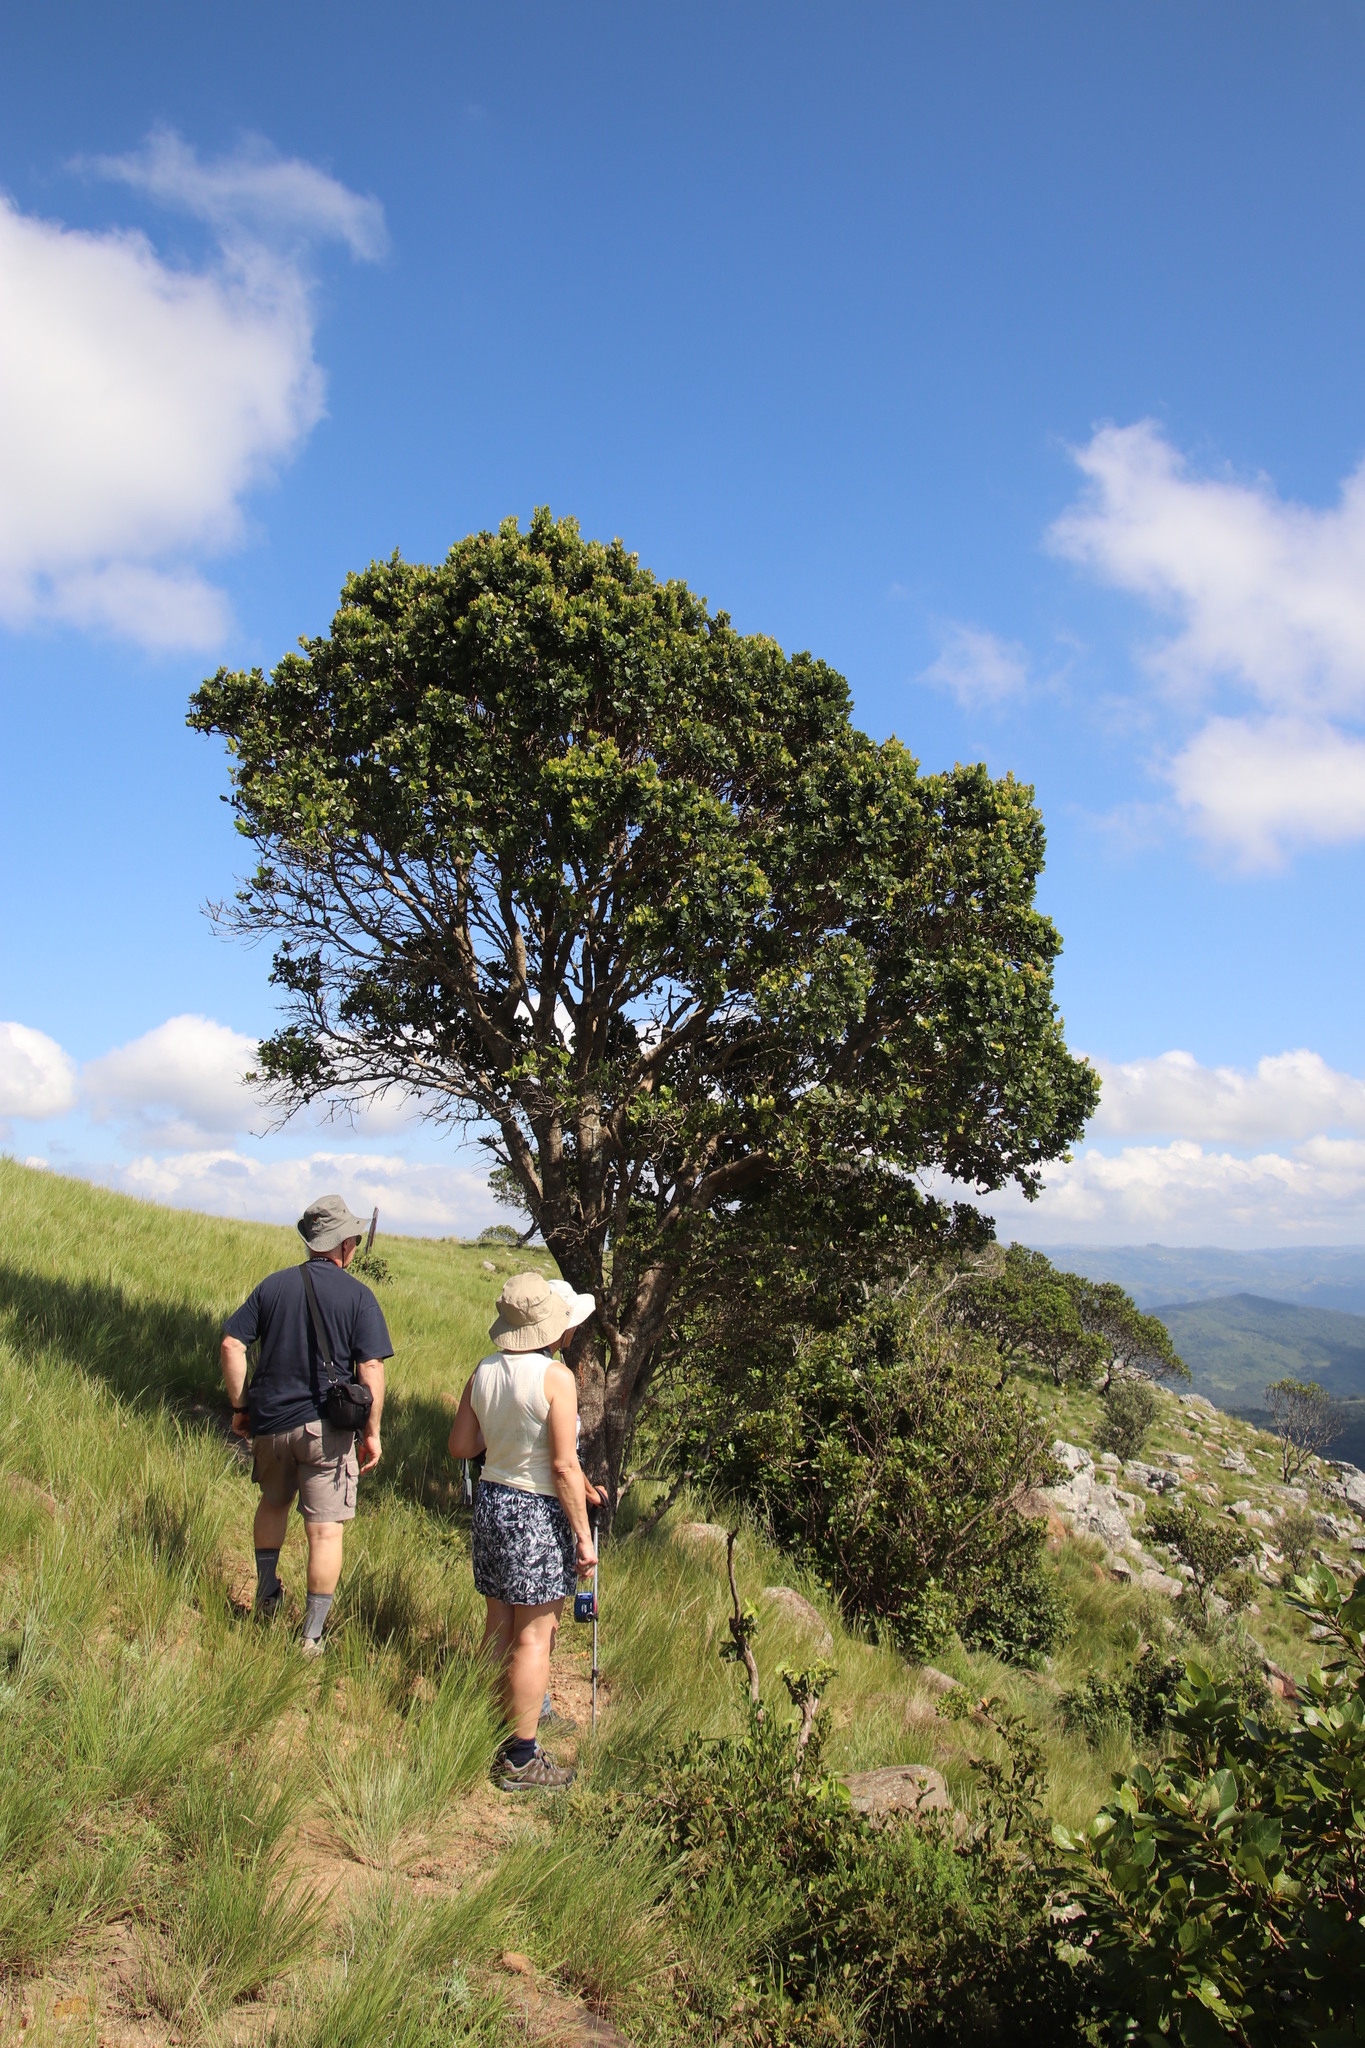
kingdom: Plantae
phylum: Tracheophyta
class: Magnoliopsida
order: Asterales
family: Asteraceae
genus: Brachylaena
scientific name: Brachylaena elliptica
